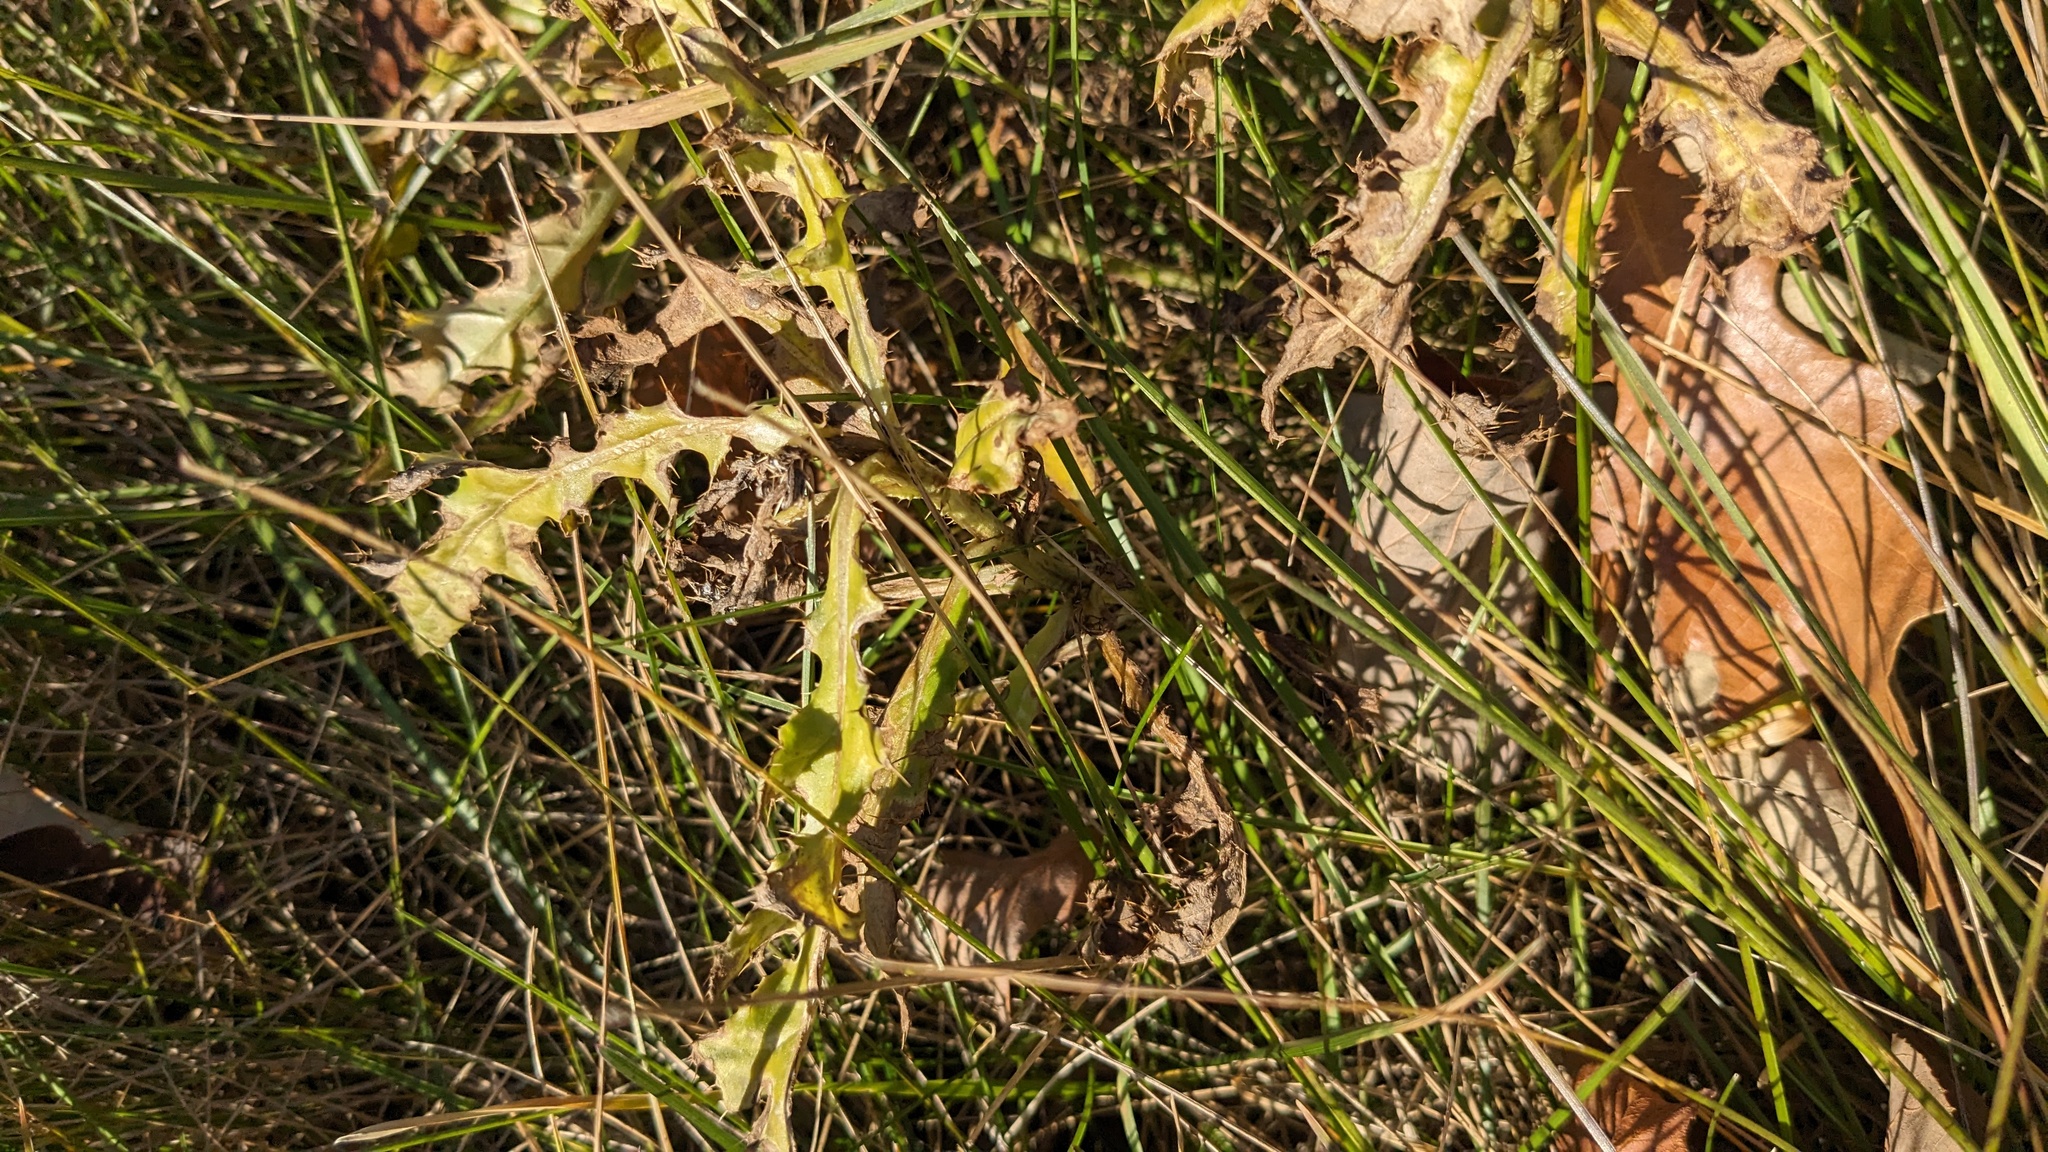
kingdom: Plantae
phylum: Tracheophyta
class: Magnoliopsida
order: Asterales
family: Asteraceae
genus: Cirsium
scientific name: Cirsium arvense
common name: Creeping thistle
